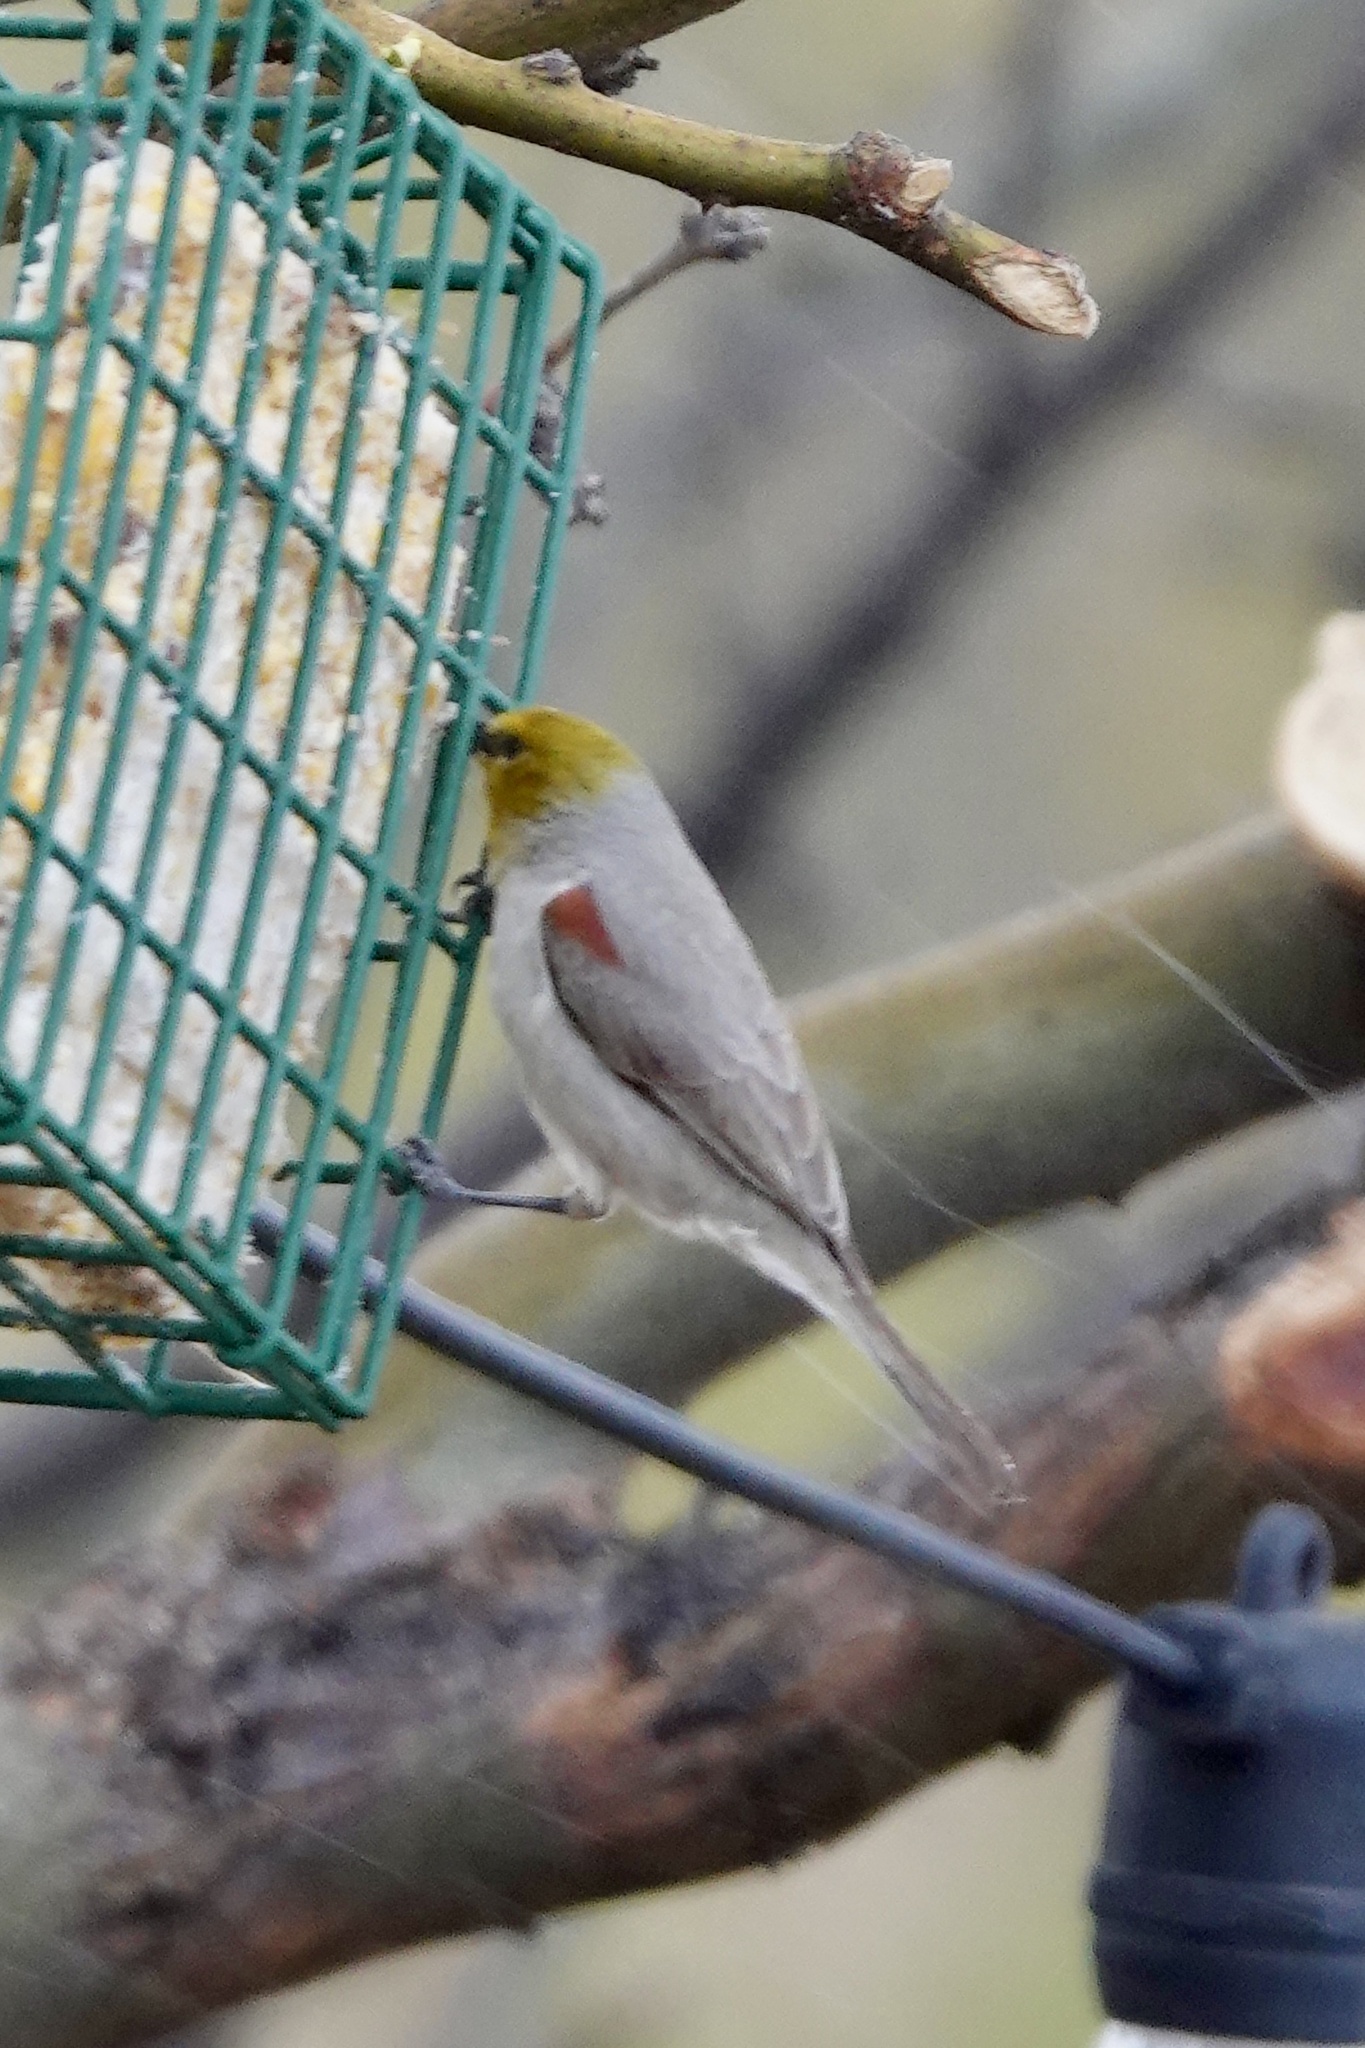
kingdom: Animalia
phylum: Chordata
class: Aves
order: Passeriformes
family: Remizidae
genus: Auriparus
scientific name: Auriparus flaviceps
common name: Verdin
